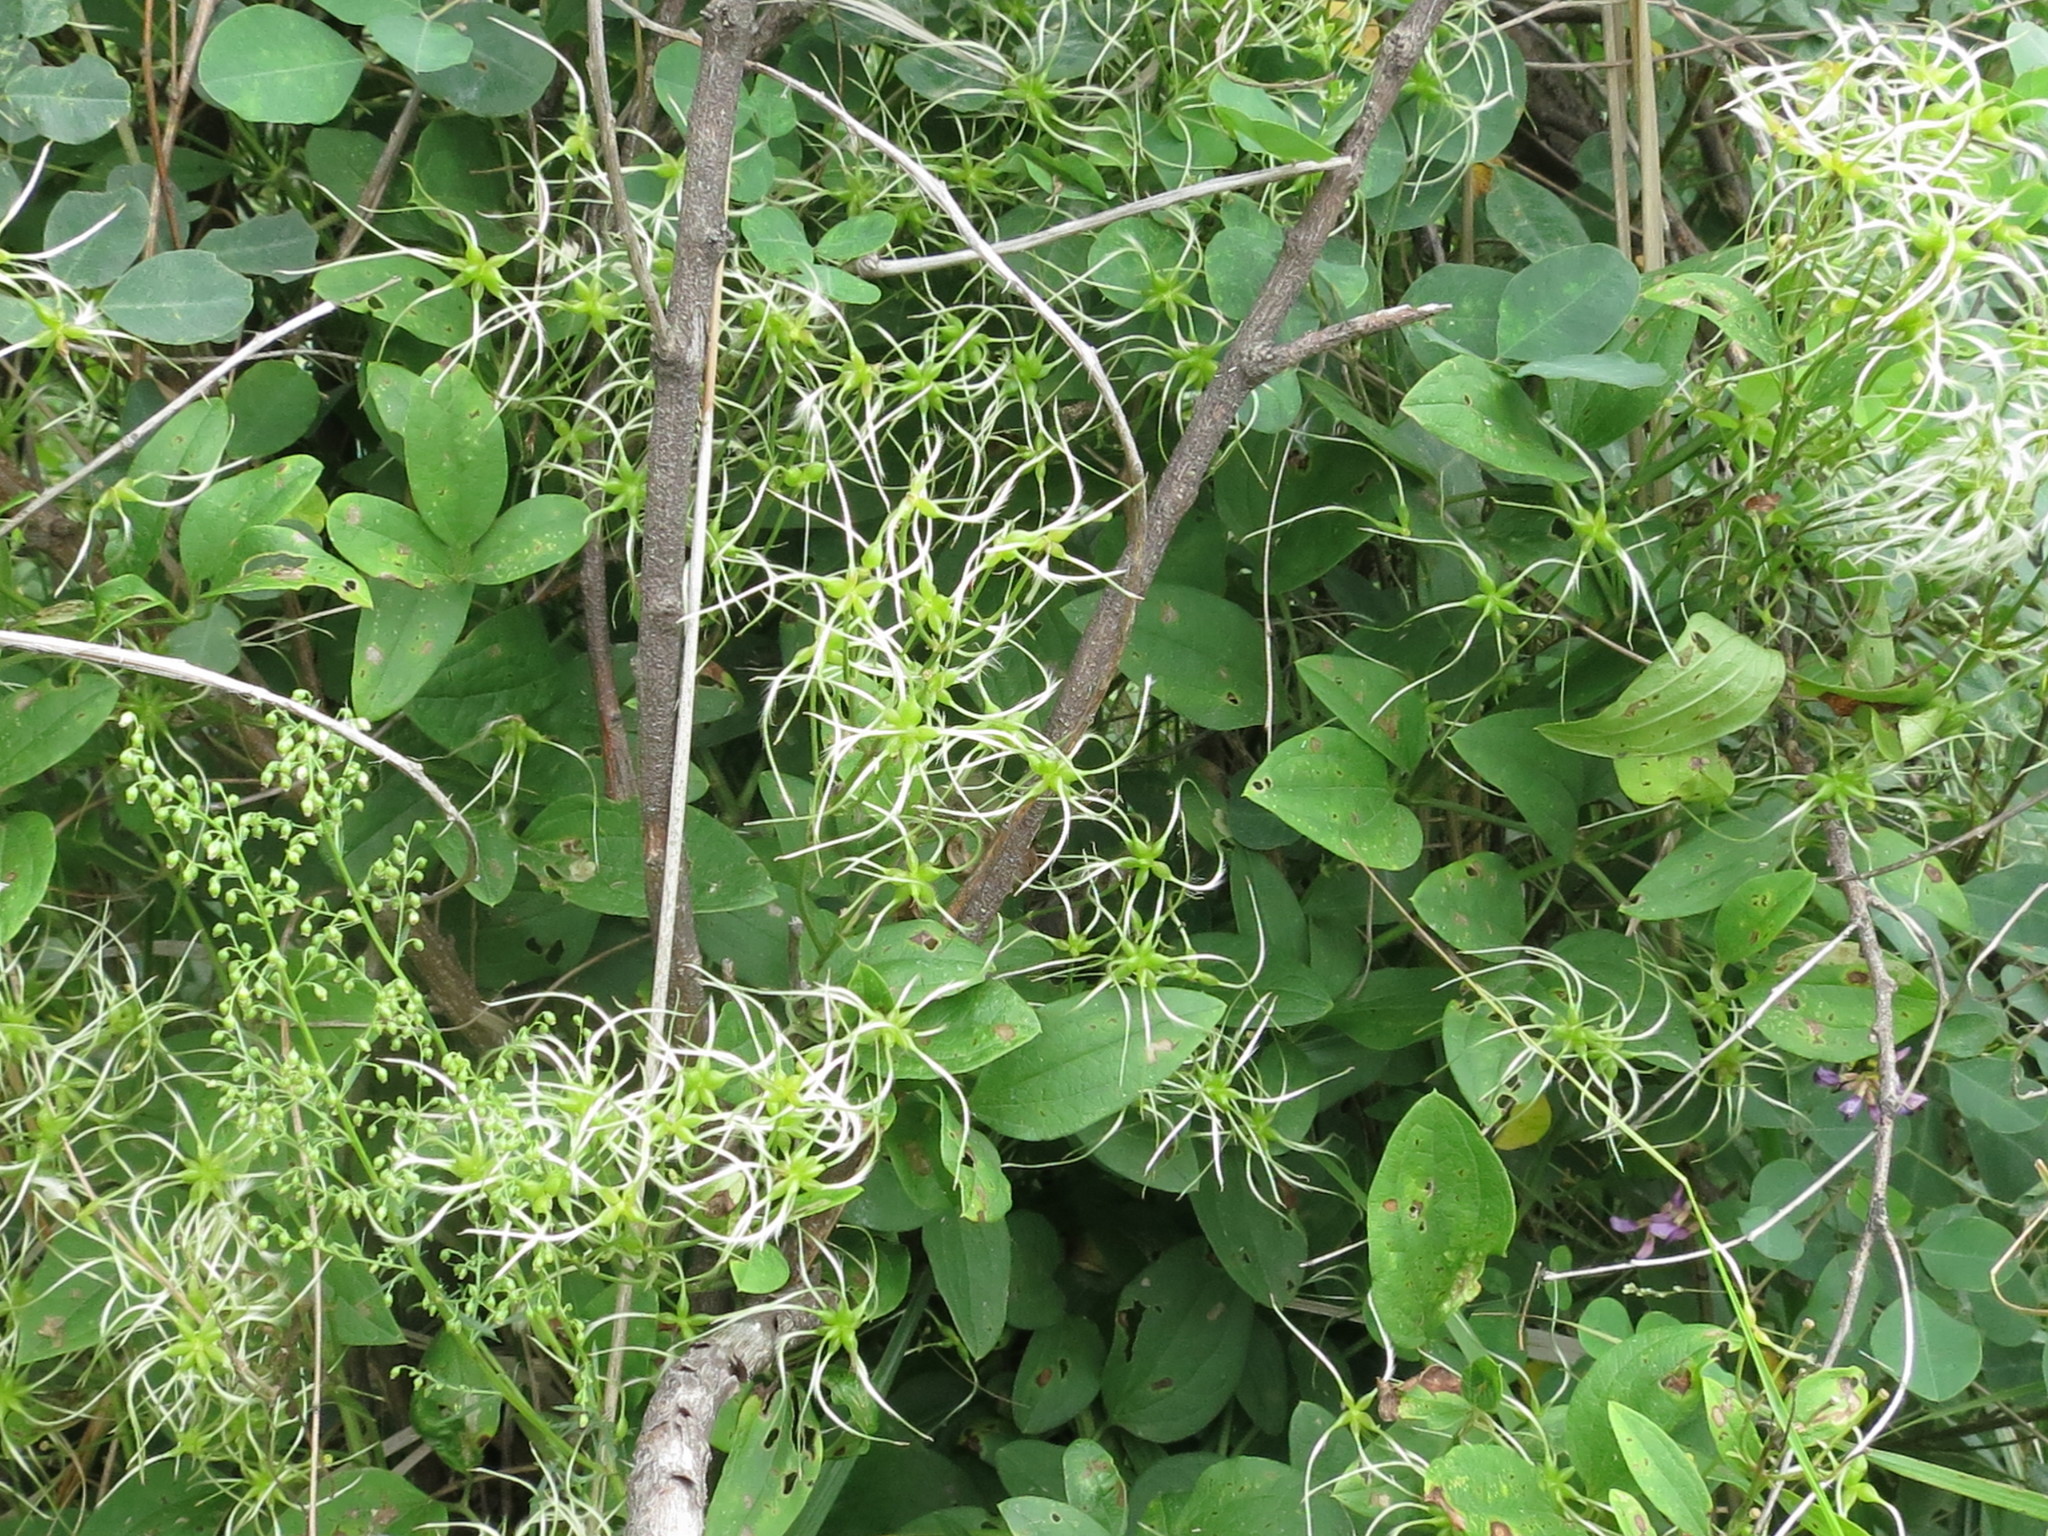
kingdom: Plantae
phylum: Tracheophyta
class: Magnoliopsida
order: Ranunculales
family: Ranunculaceae
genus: Clematis
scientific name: Clematis terniflora
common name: Sweet autumn clematis
